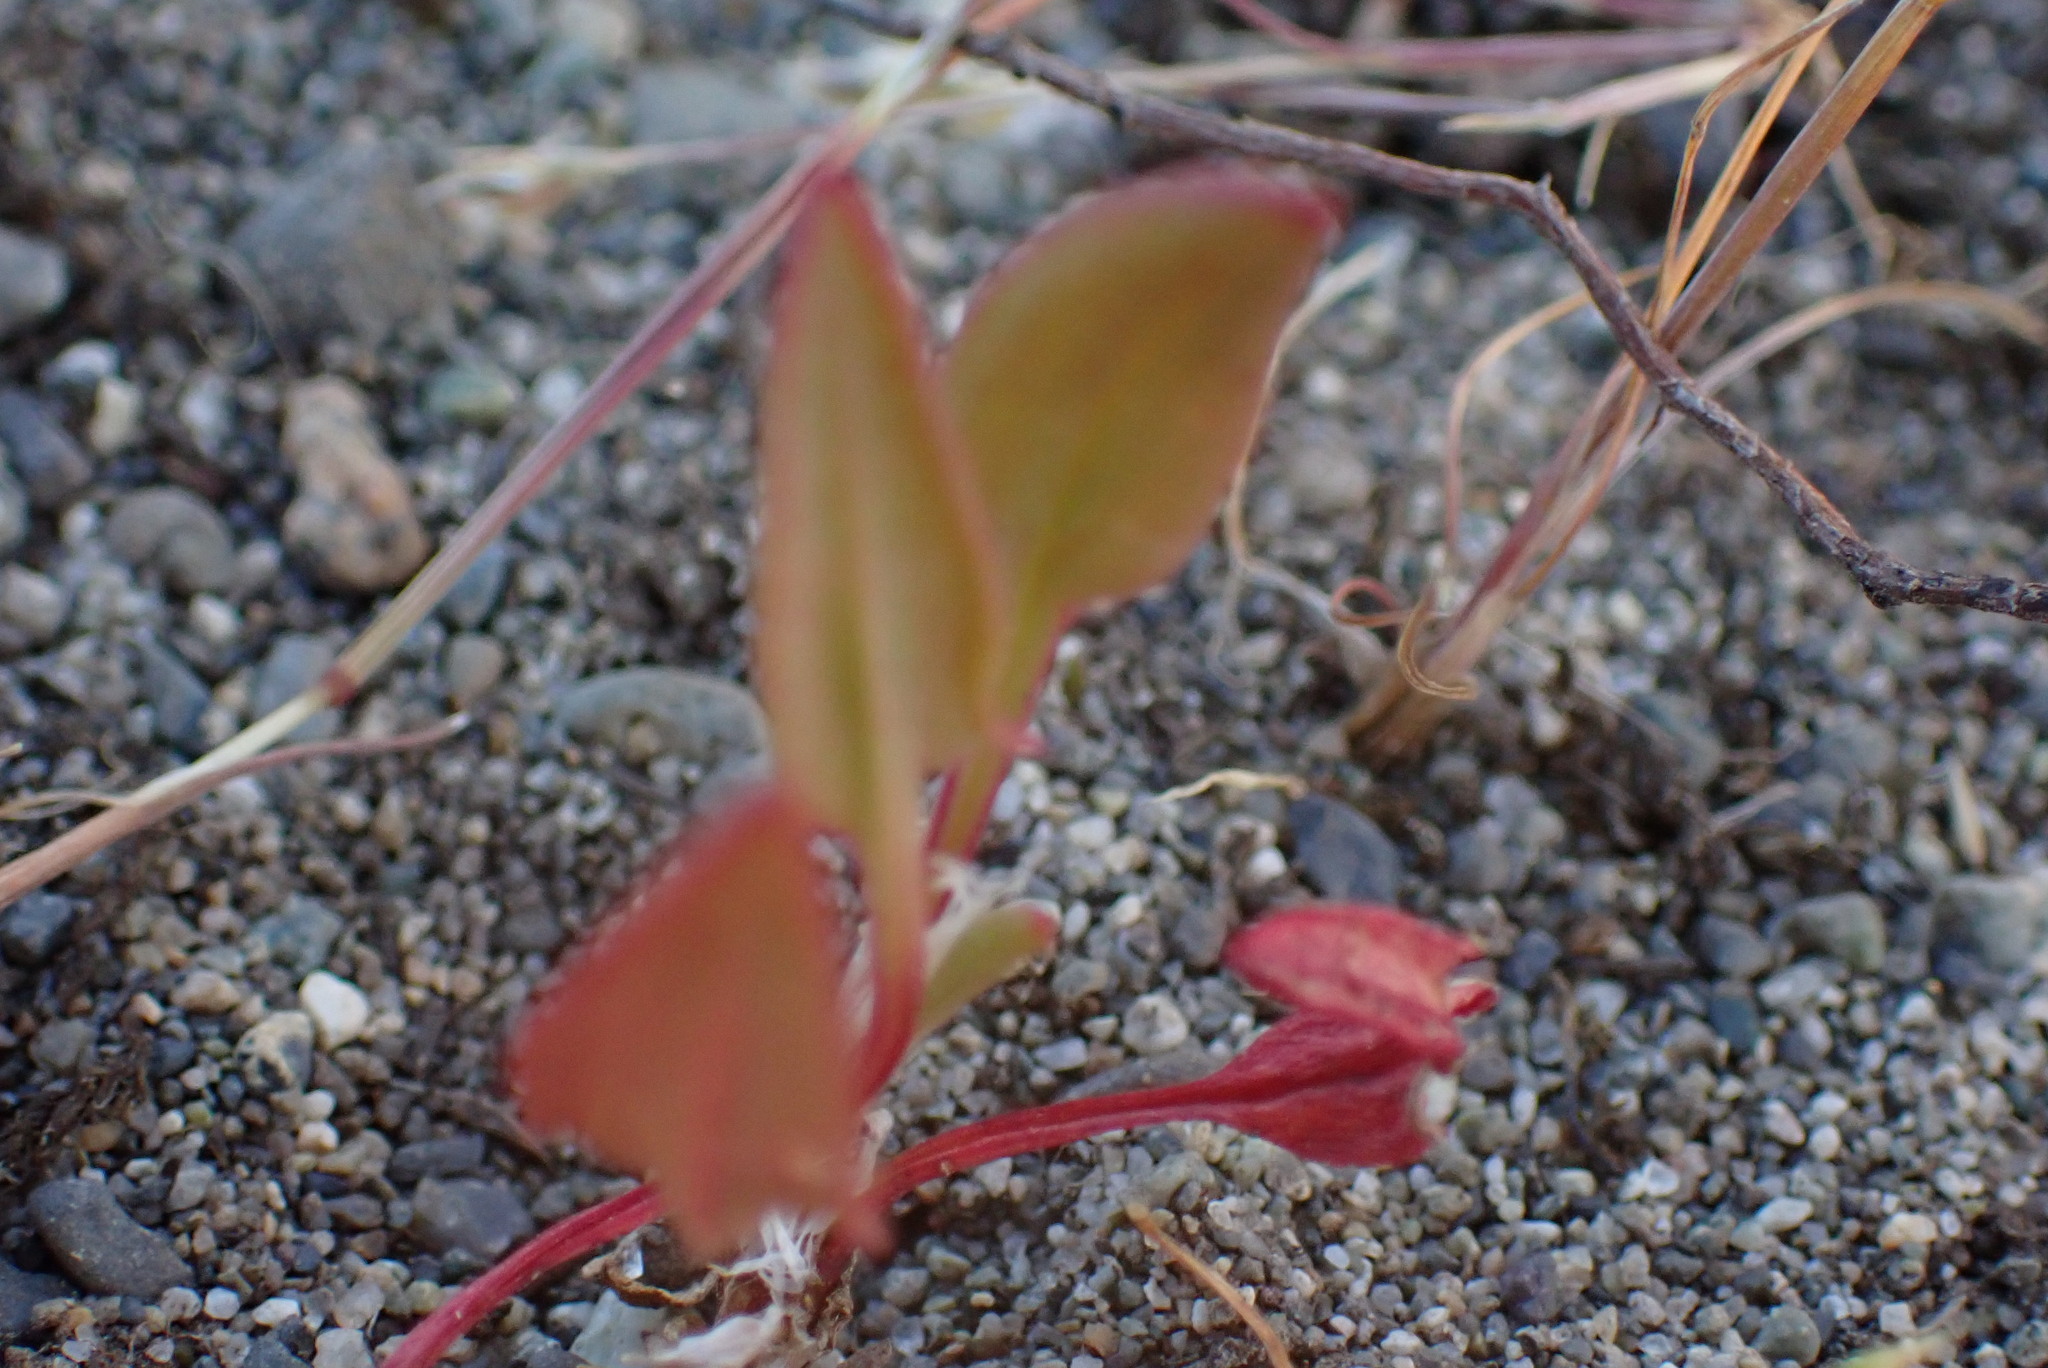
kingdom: Plantae
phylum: Tracheophyta
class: Magnoliopsida
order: Caryophyllales
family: Polygonaceae
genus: Rumex
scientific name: Rumex acetosella
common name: Common sheep sorrel
